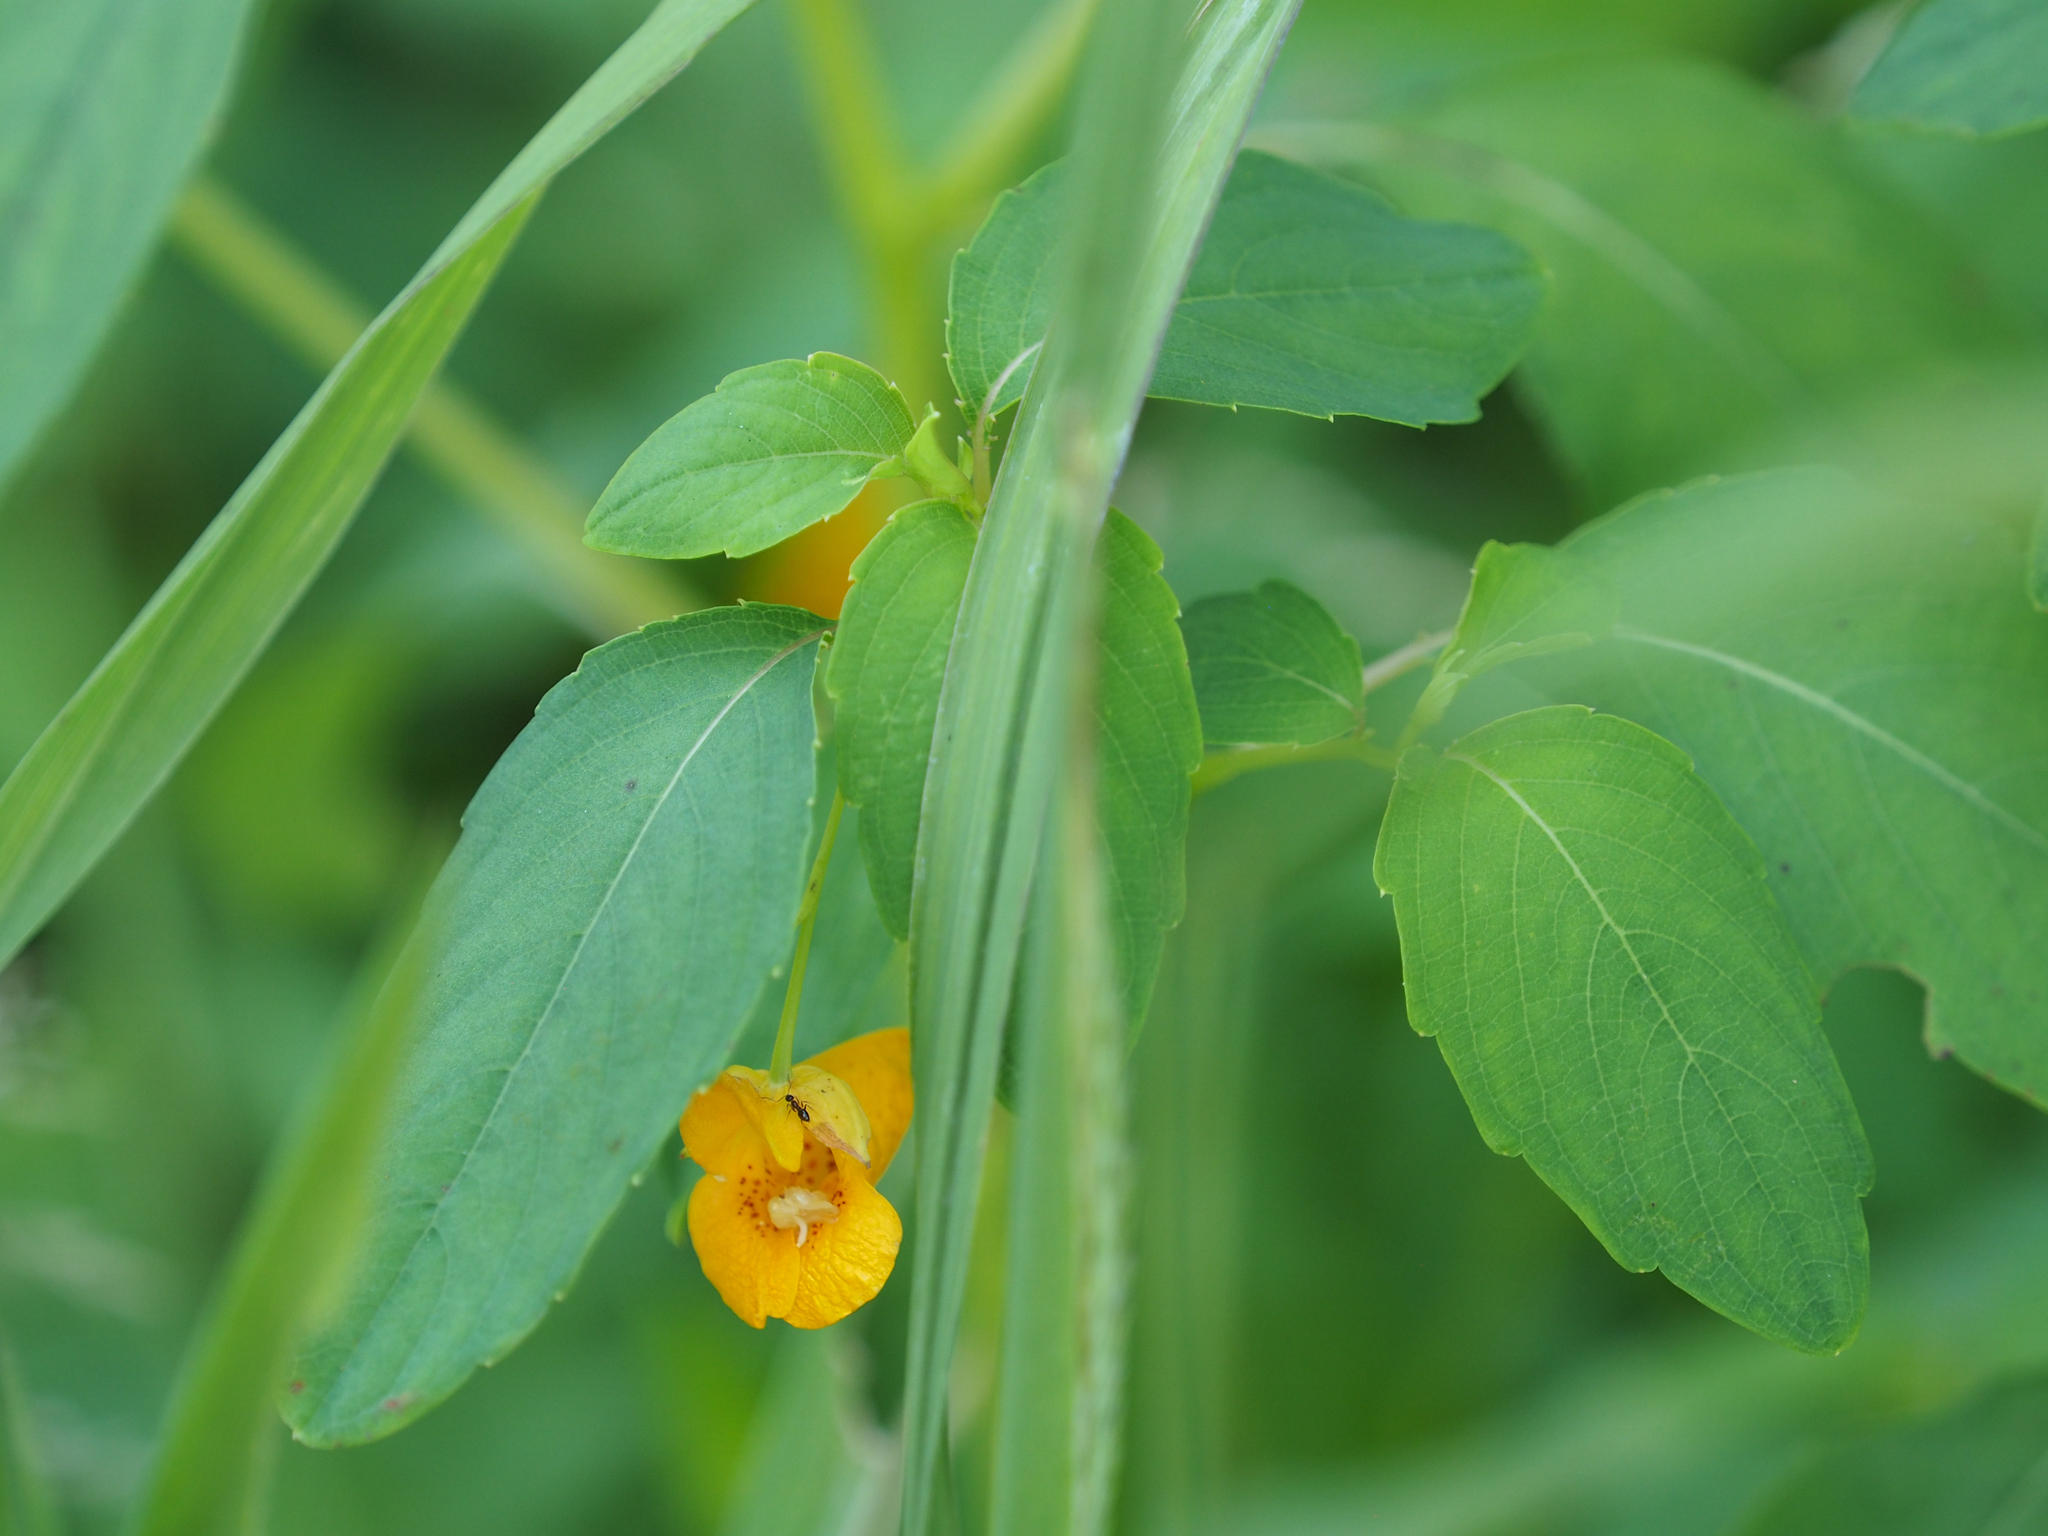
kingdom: Plantae
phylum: Tracheophyta
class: Magnoliopsida
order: Ericales
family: Balsaminaceae
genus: Impatiens
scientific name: Impatiens capensis
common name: Orange balsam
